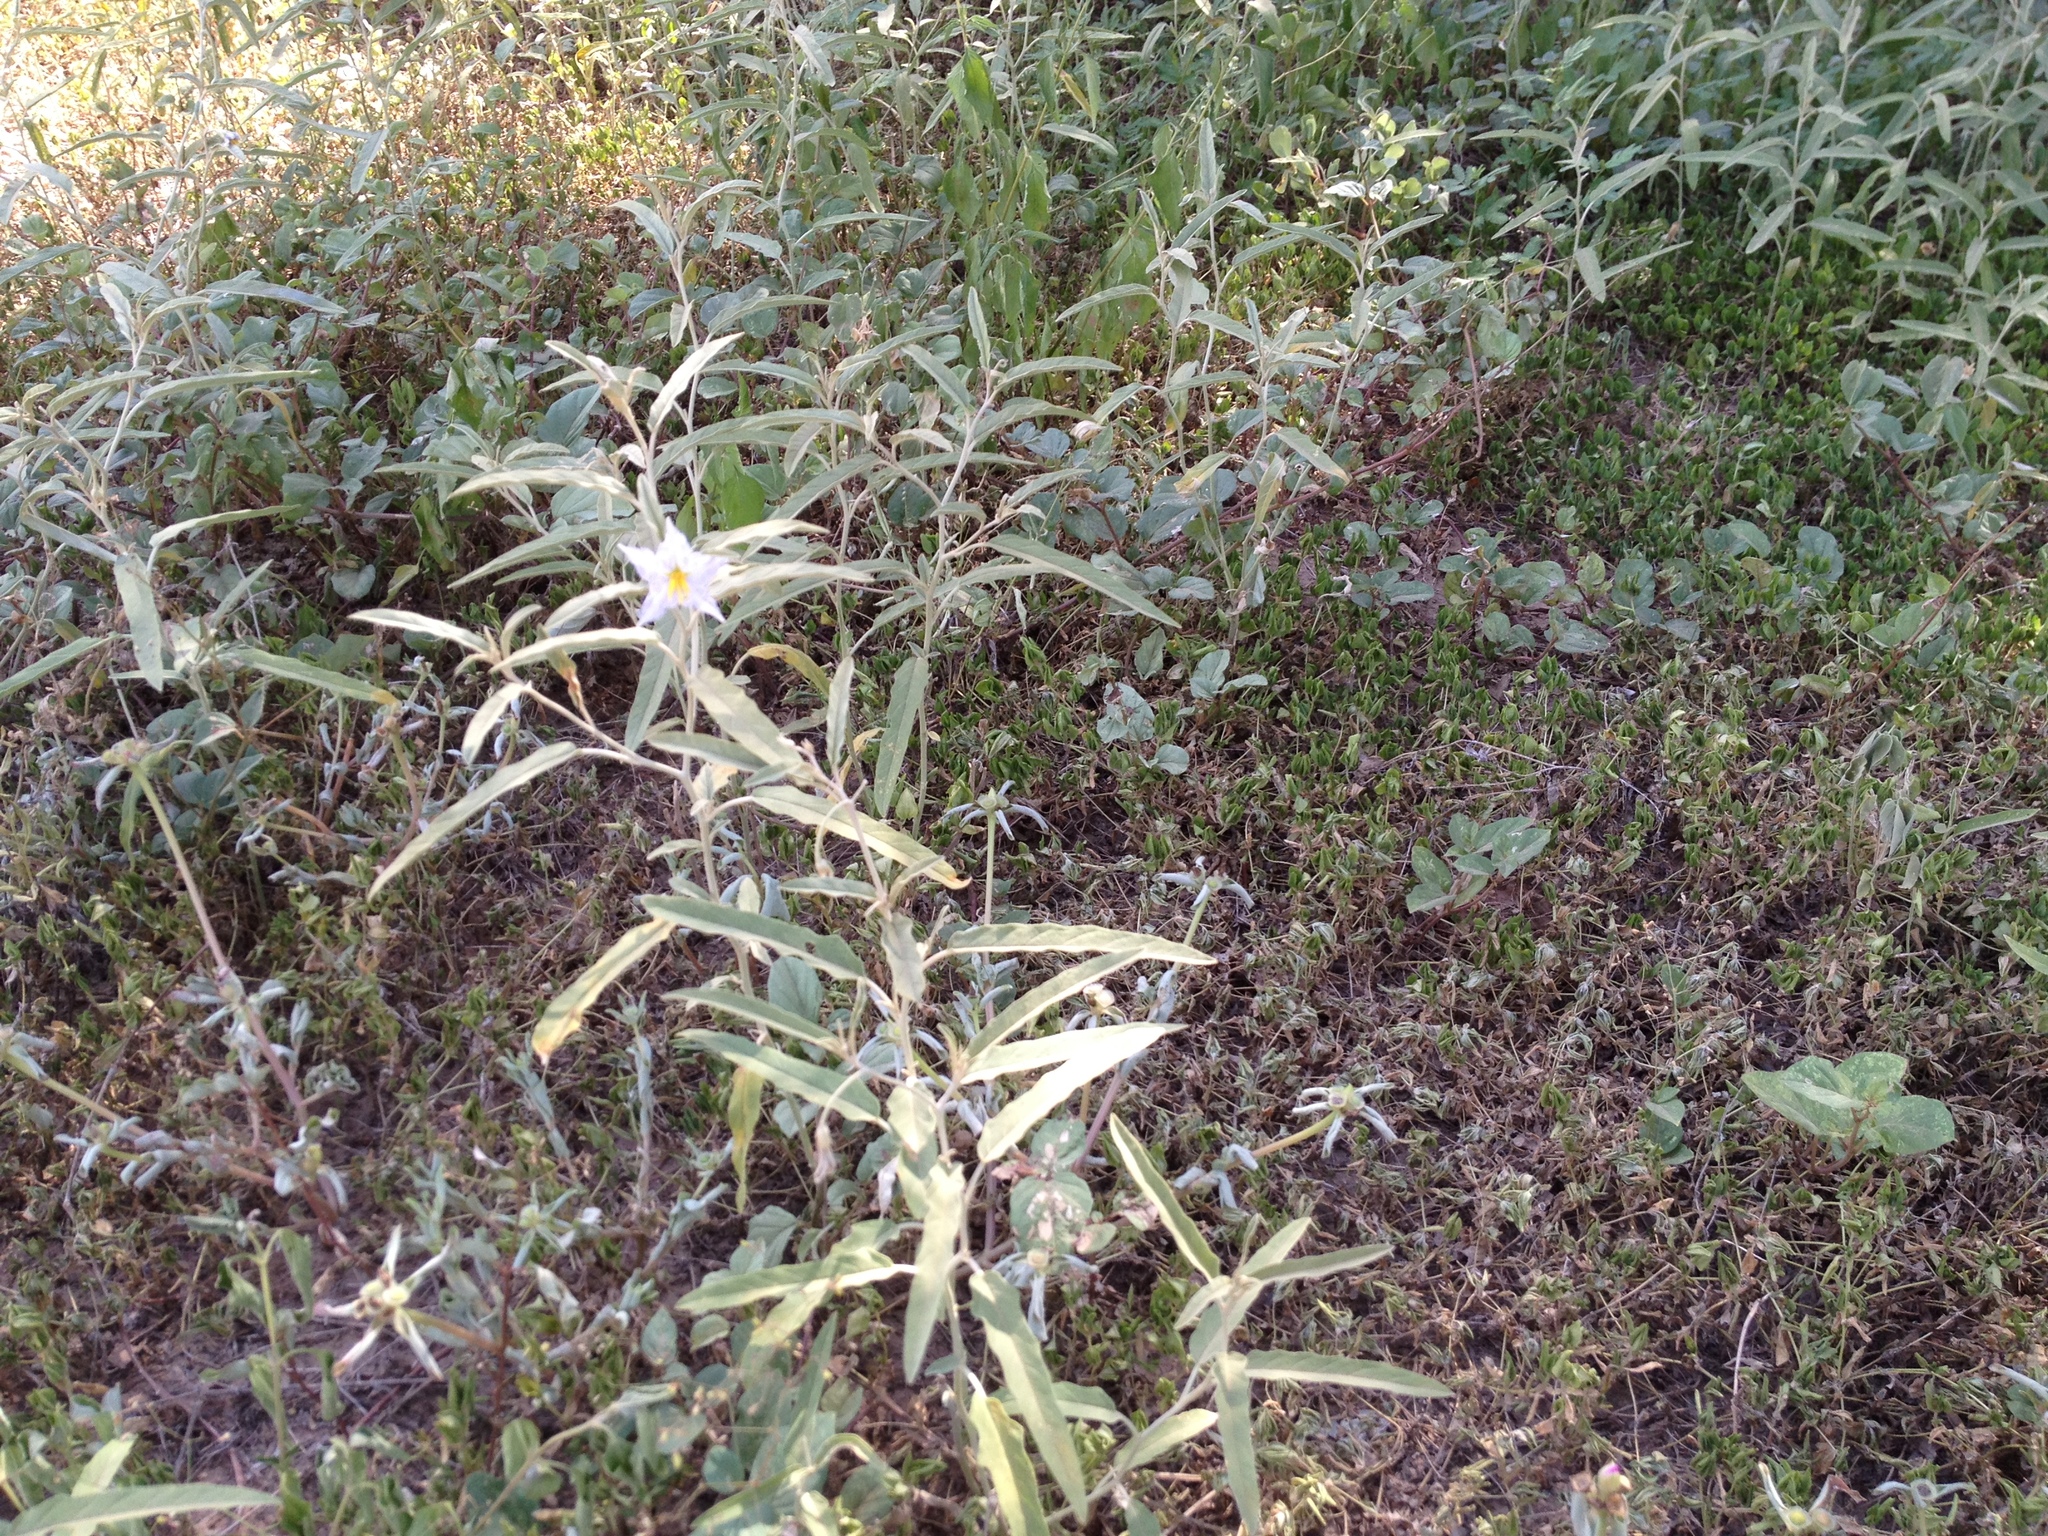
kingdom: Plantae
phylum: Tracheophyta
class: Magnoliopsida
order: Solanales
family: Solanaceae
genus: Solanum
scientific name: Solanum elaeagnifolium
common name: Silverleaf nightshade
